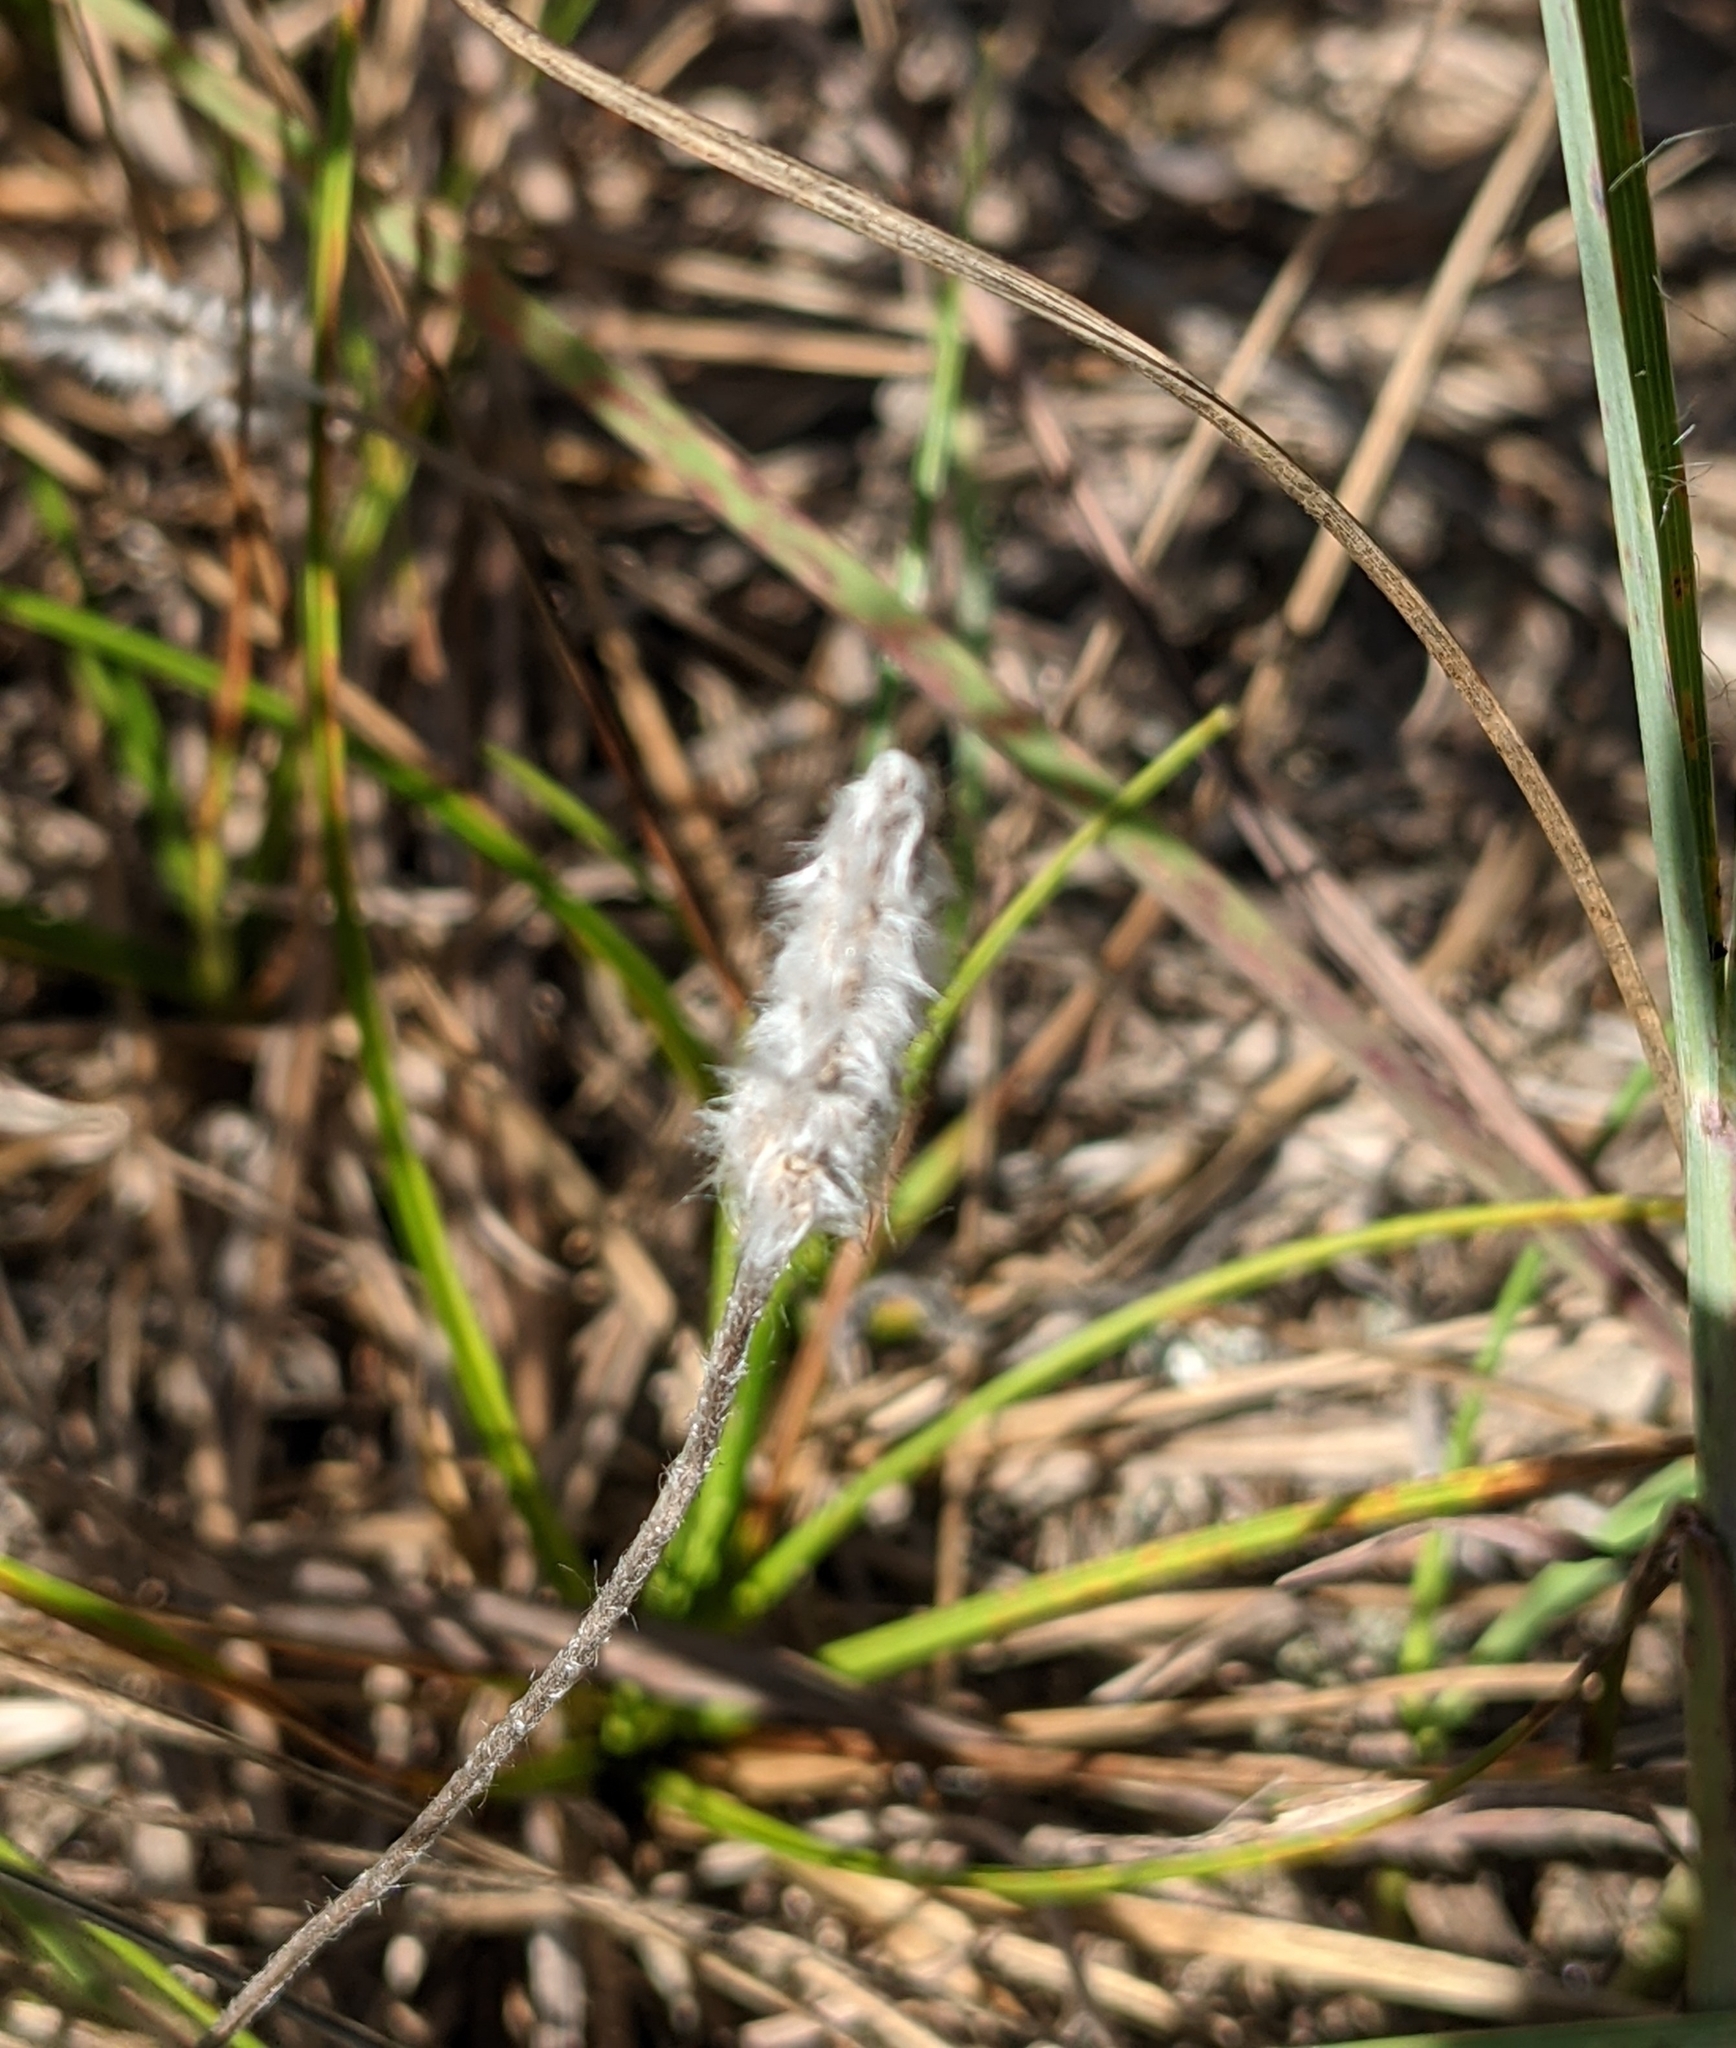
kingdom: Plantae
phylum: Tracheophyta
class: Magnoliopsida
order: Lamiales
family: Plantaginaceae
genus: Plantago
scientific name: Plantago patagonica
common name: Patagonia indian-wheat
